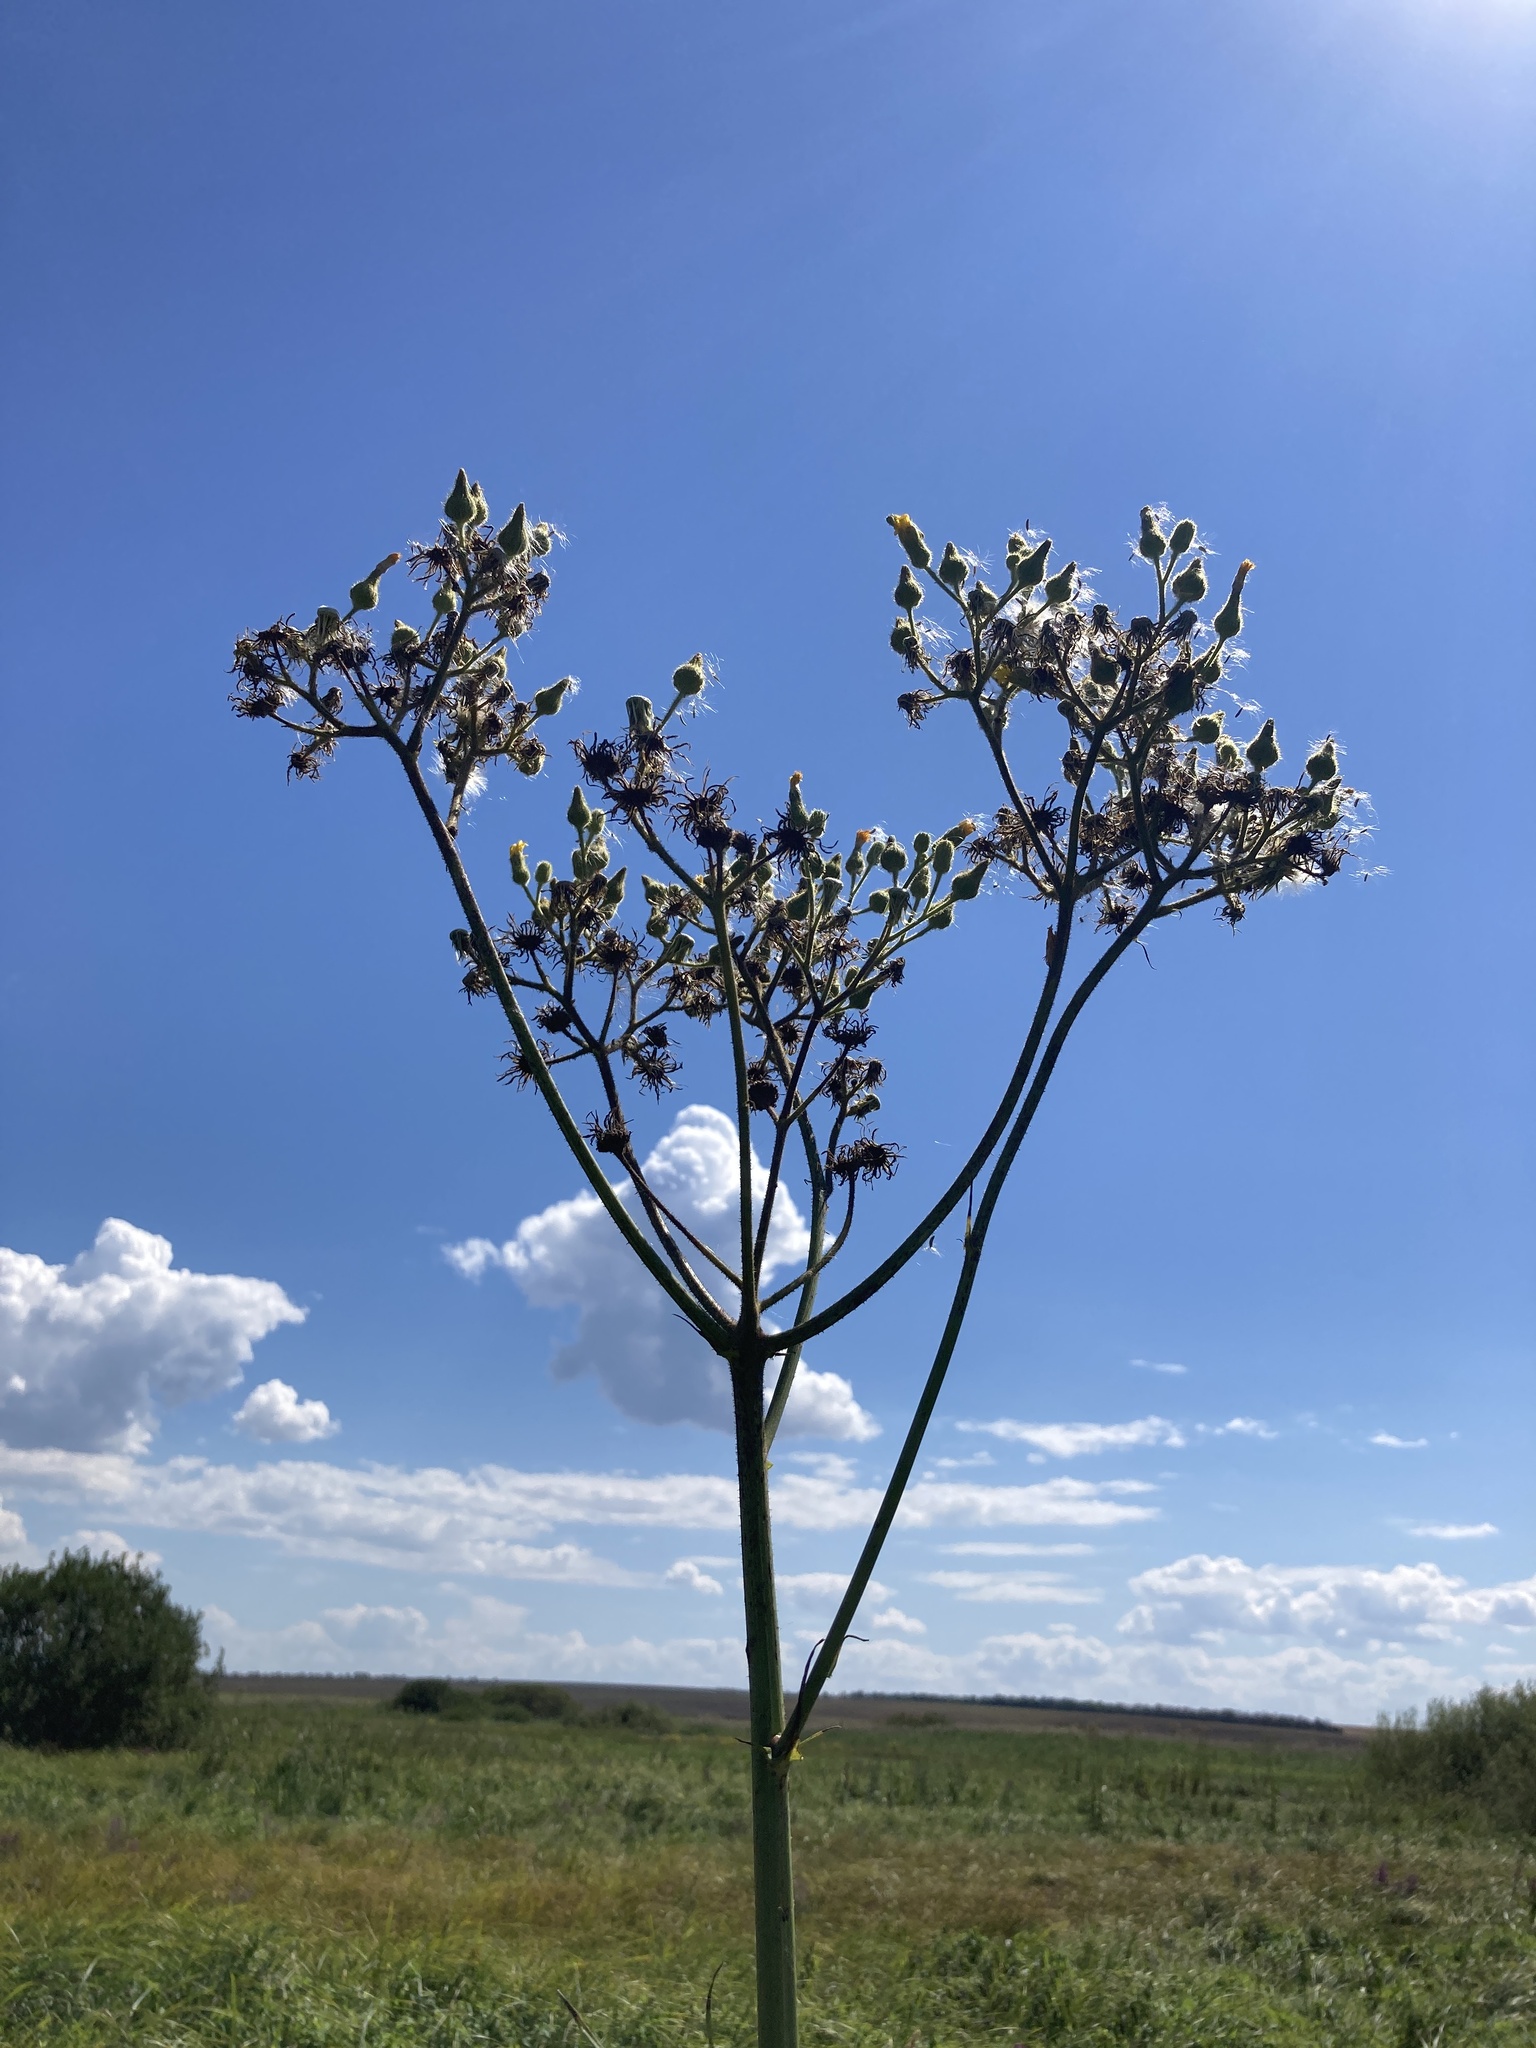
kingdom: Plantae
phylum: Tracheophyta
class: Magnoliopsida
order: Asterales
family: Asteraceae
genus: Sonchus
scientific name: Sonchus palustris
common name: Marsh sow-thistle
